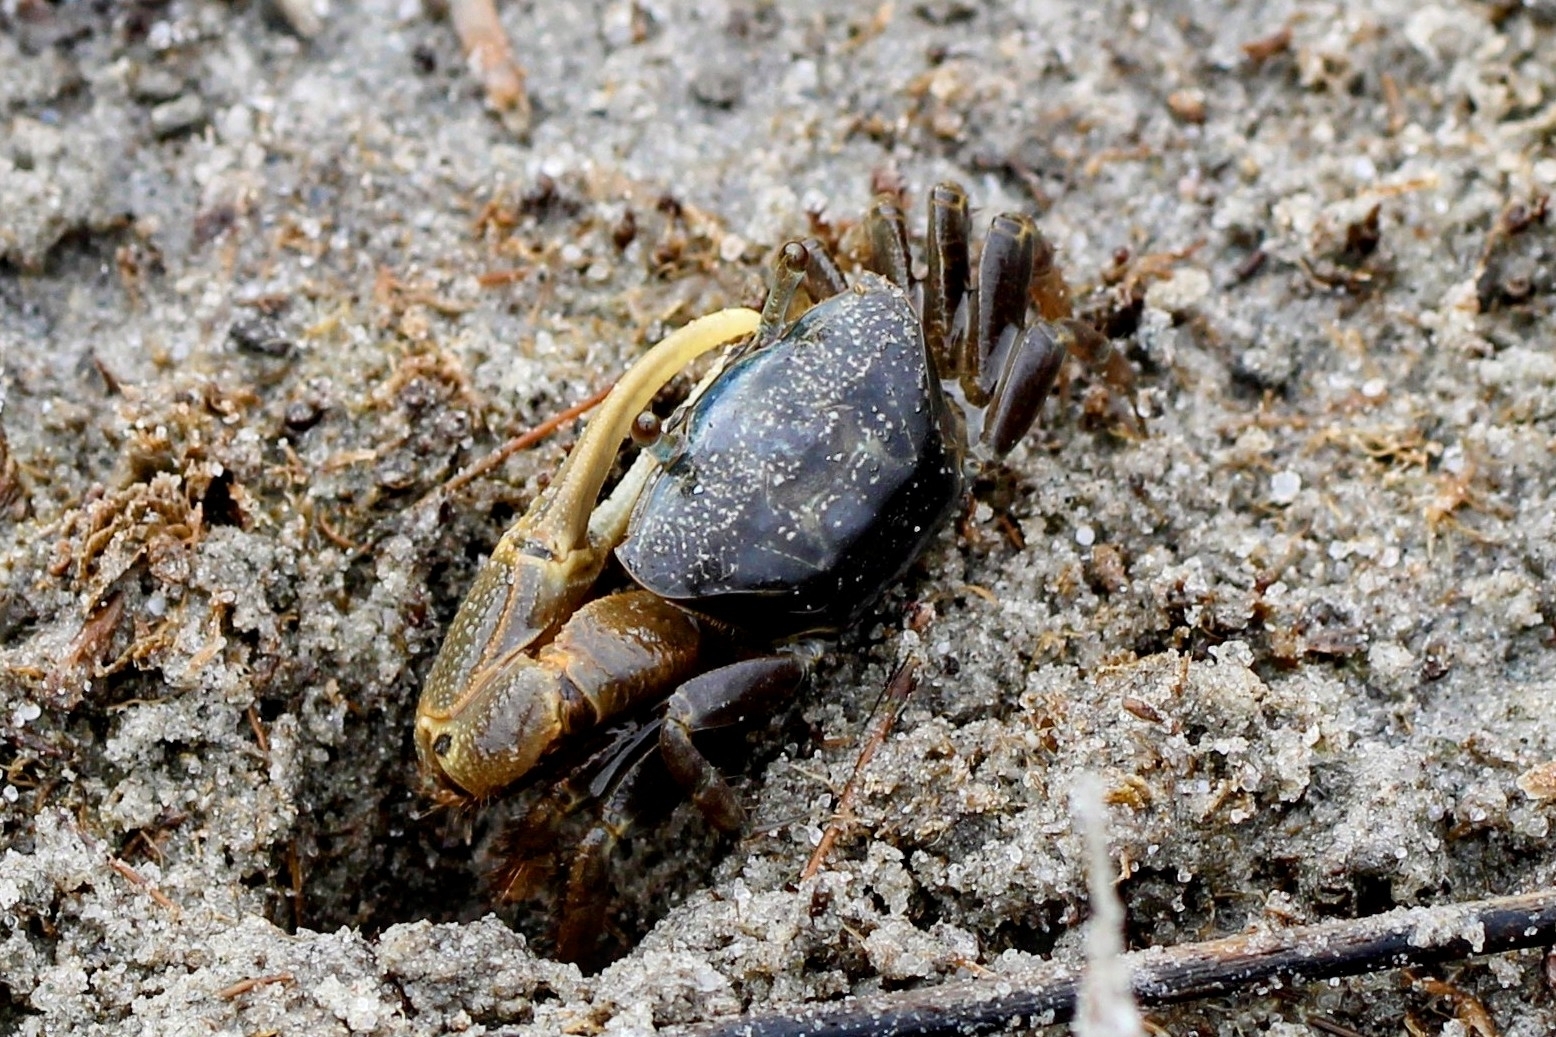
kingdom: Animalia
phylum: Arthropoda
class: Malacostraca
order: Decapoda
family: Ocypodidae
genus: Minuca
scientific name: Minuca pugnax
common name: Mud fiddler crab
